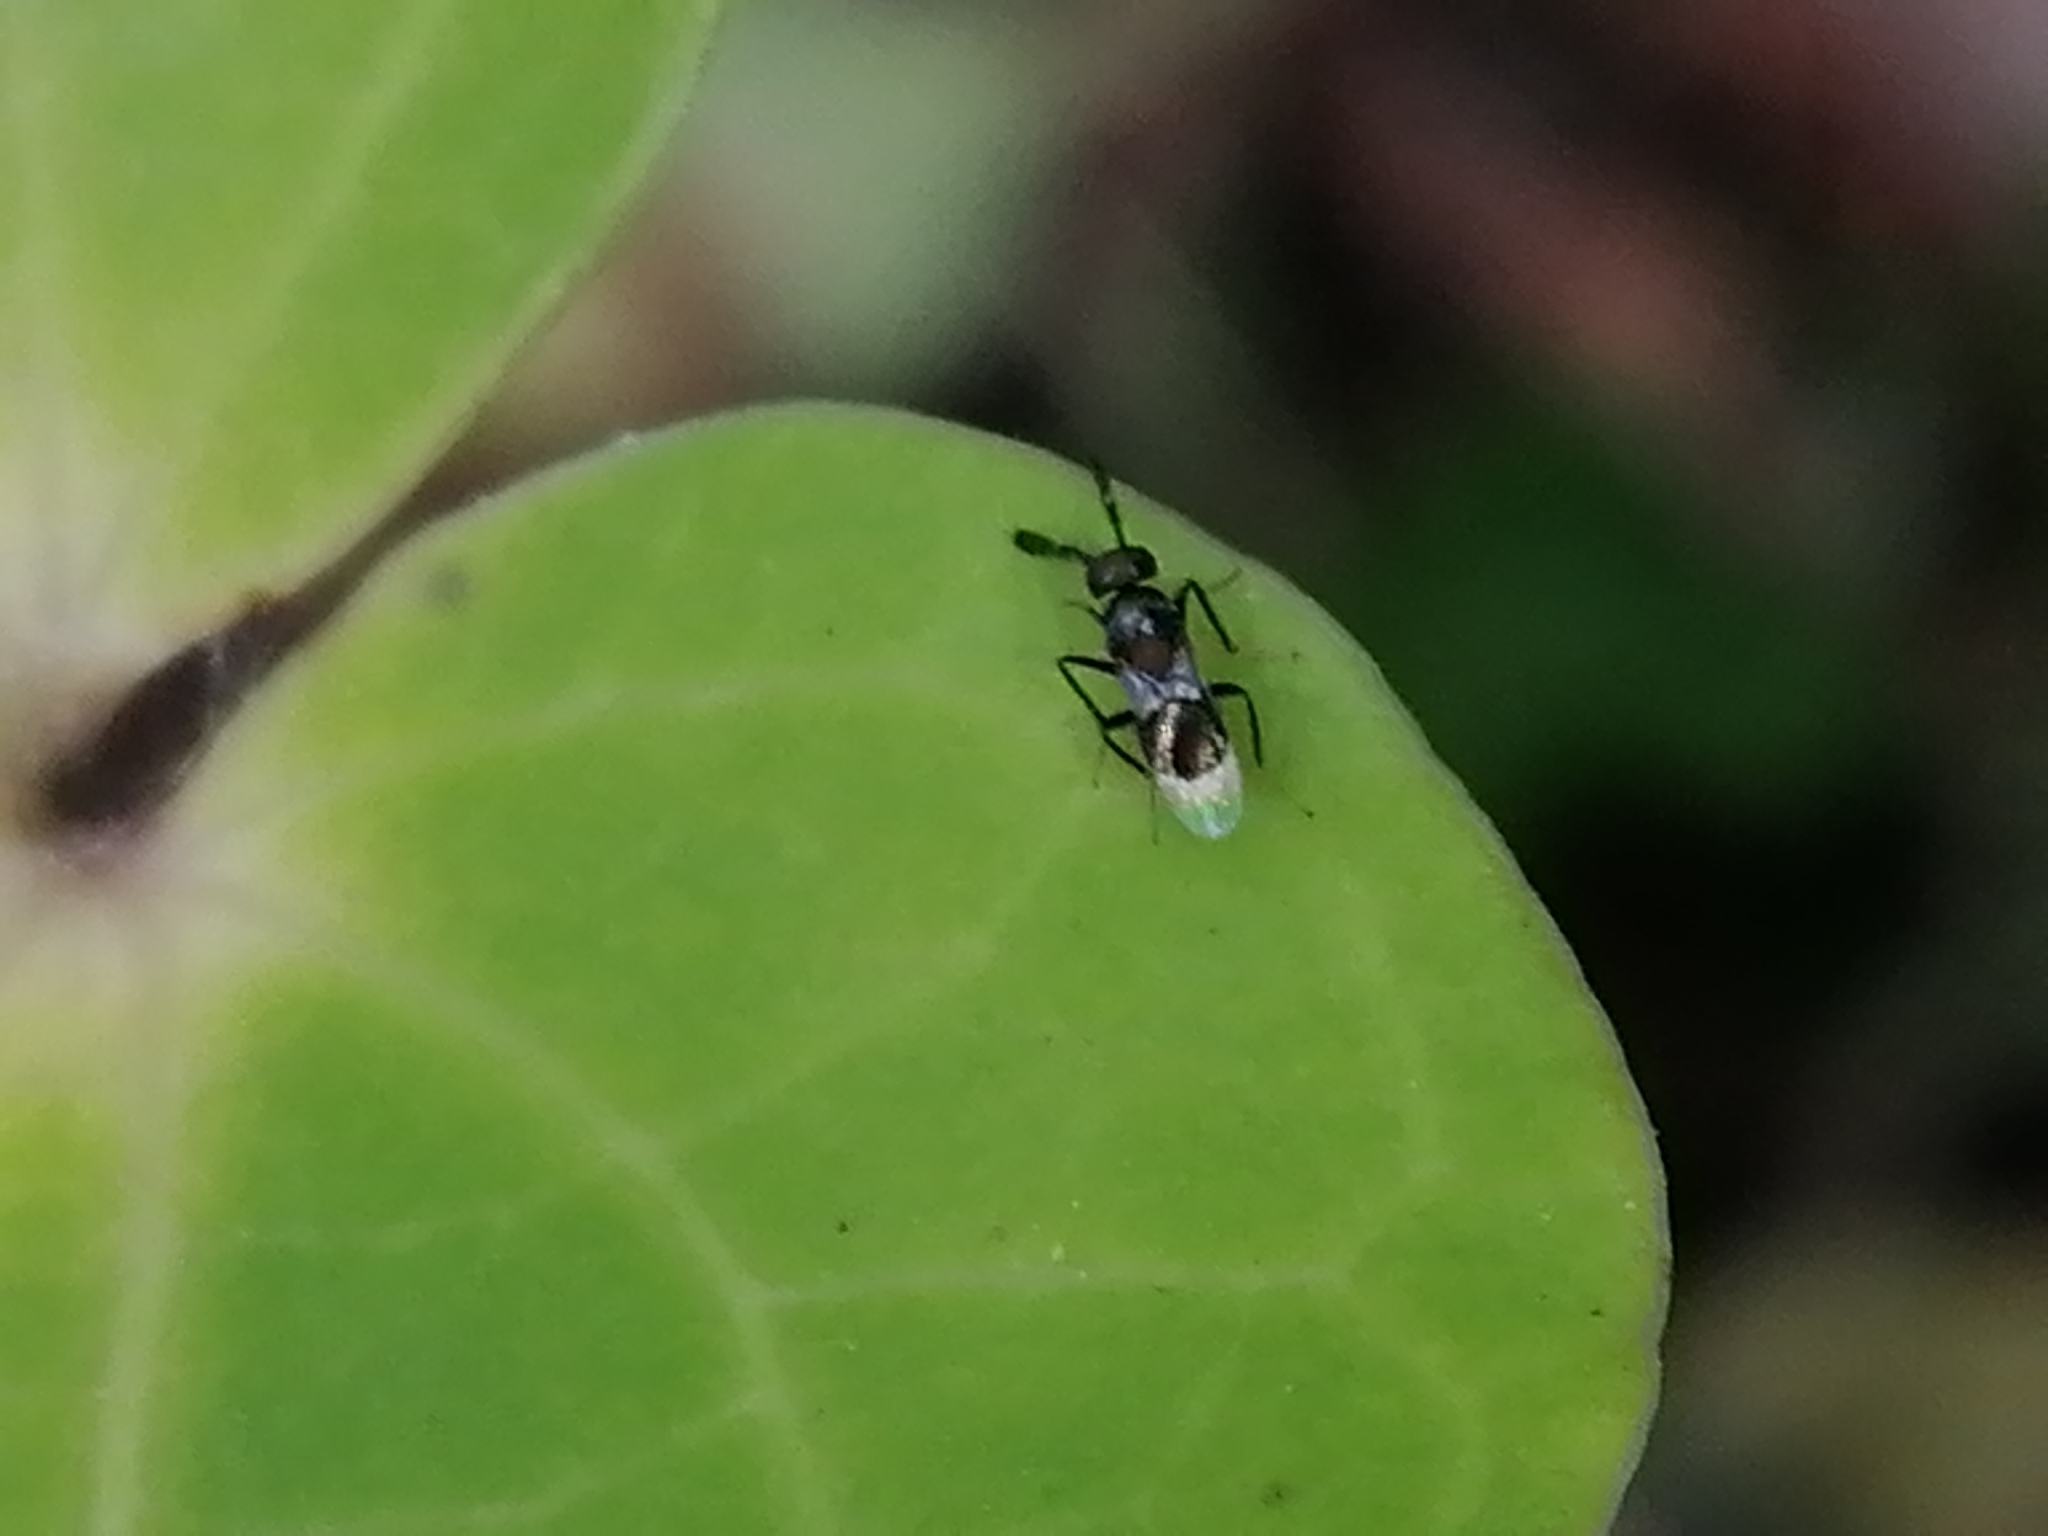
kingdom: Animalia
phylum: Arthropoda
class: Insecta
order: Hymenoptera
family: Encyrtidae
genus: Cryptanusia
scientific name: Cryptanusia aureiscutellum
